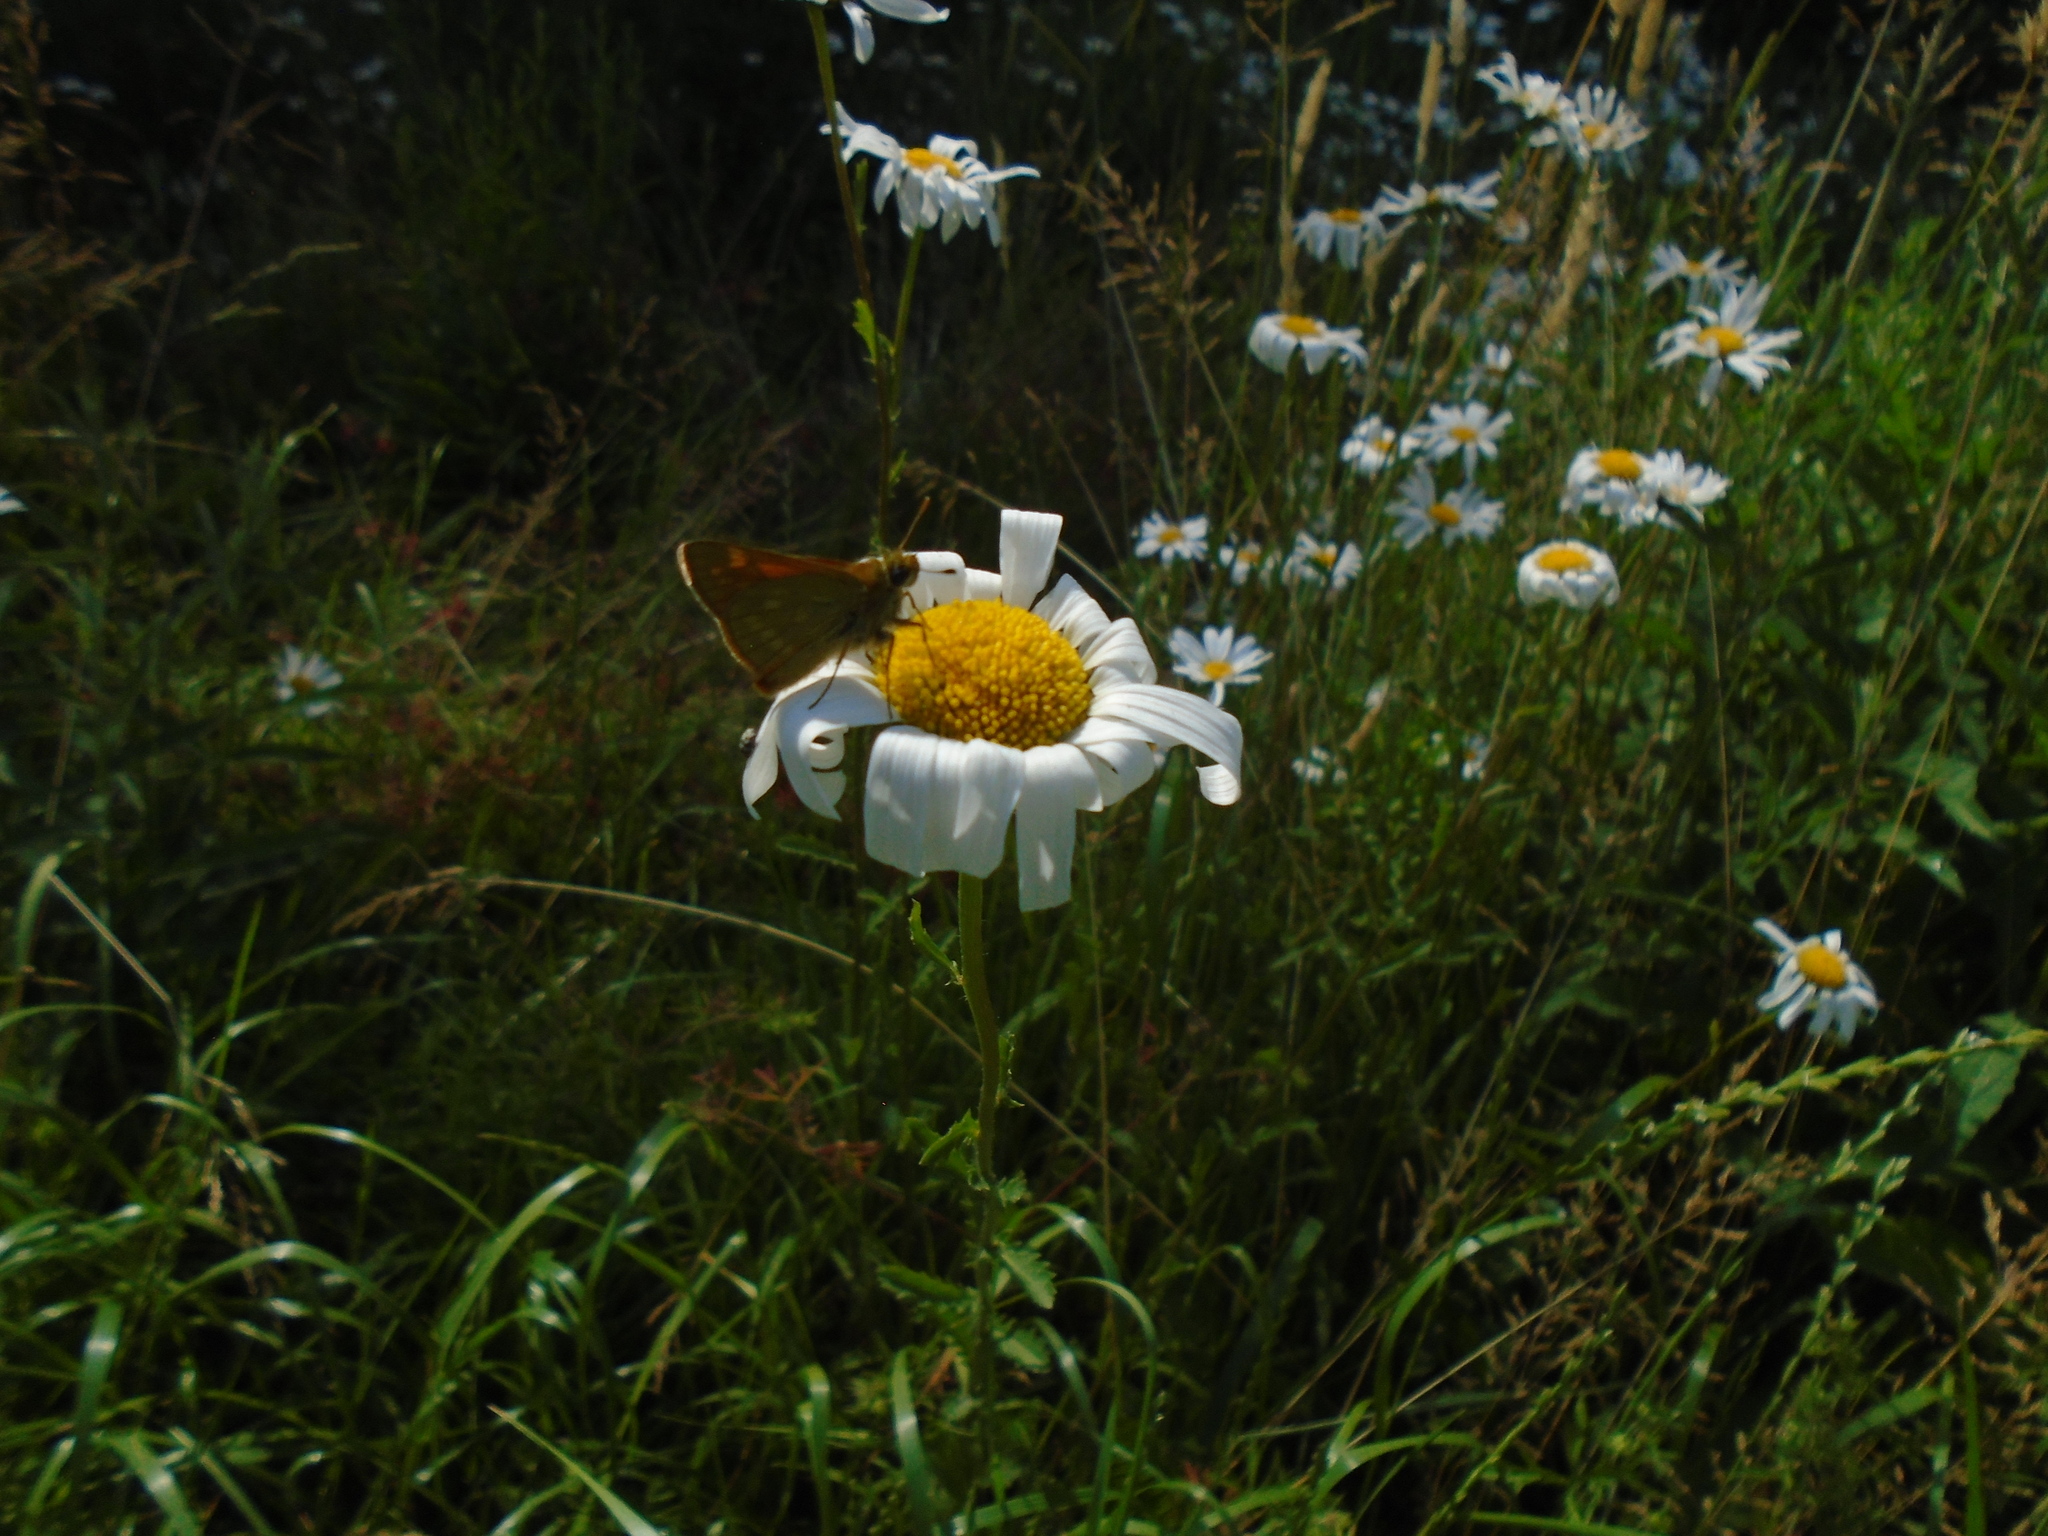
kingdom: Animalia
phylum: Arthropoda
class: Insecta
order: Lepidoptera
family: Hesperiidae
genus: Ochlodes
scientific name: Ochlodes venata
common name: Large skipper
